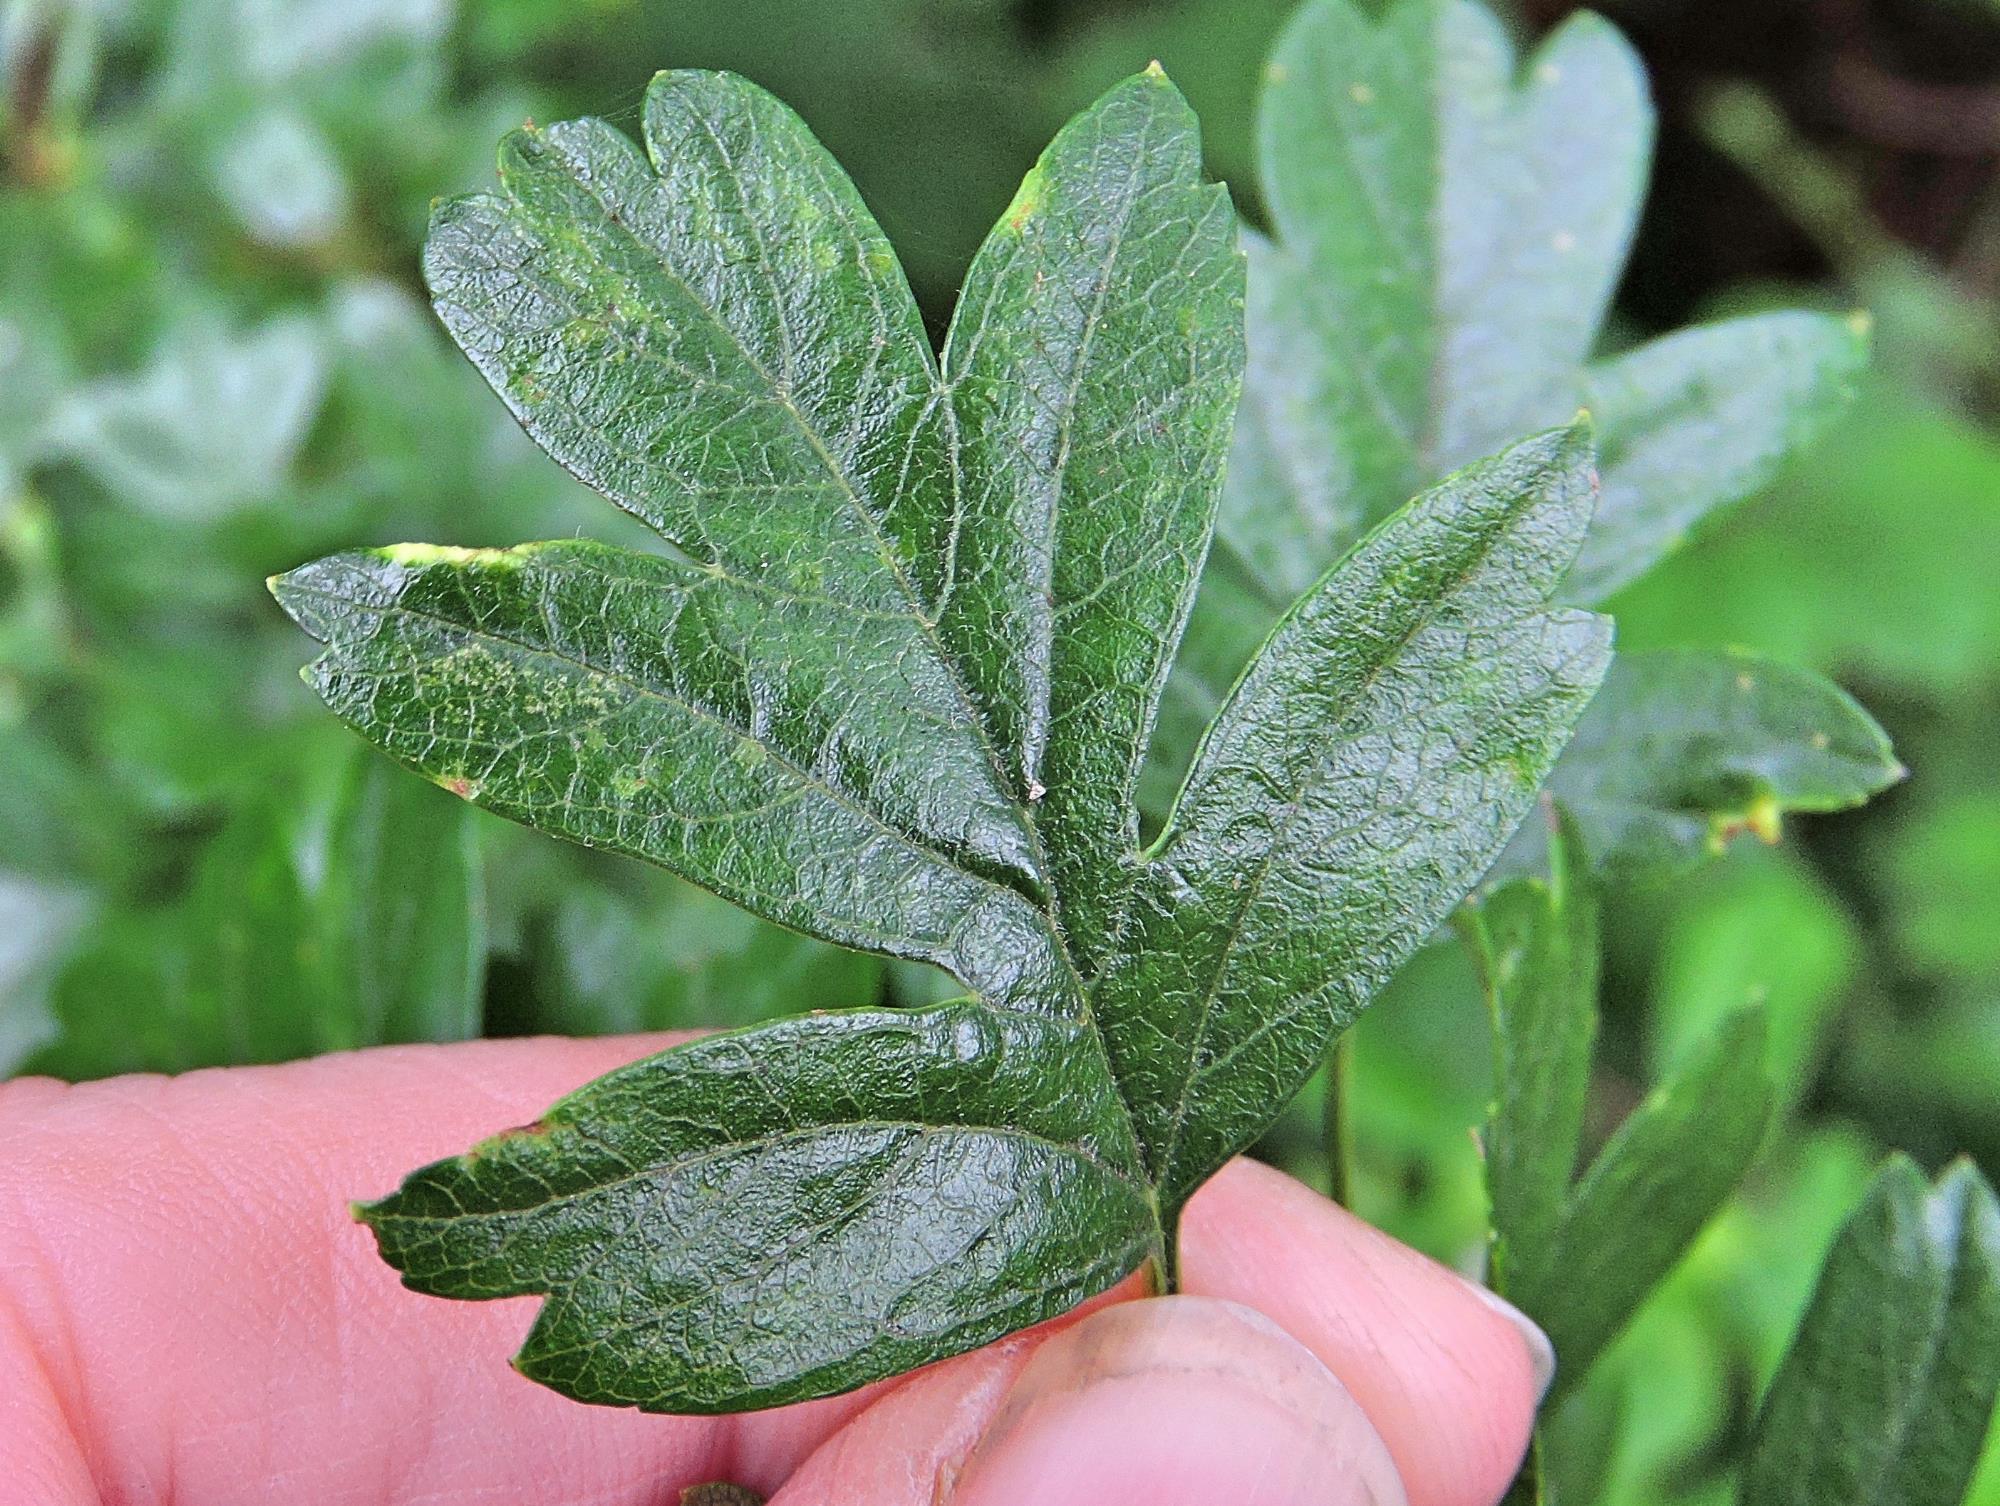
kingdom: Animalia
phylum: Arthropoda
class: Arachnida
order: Trombidiformes
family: Eriophyidae
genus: Phyllocoptes
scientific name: Phyllocoptes goniothorax
